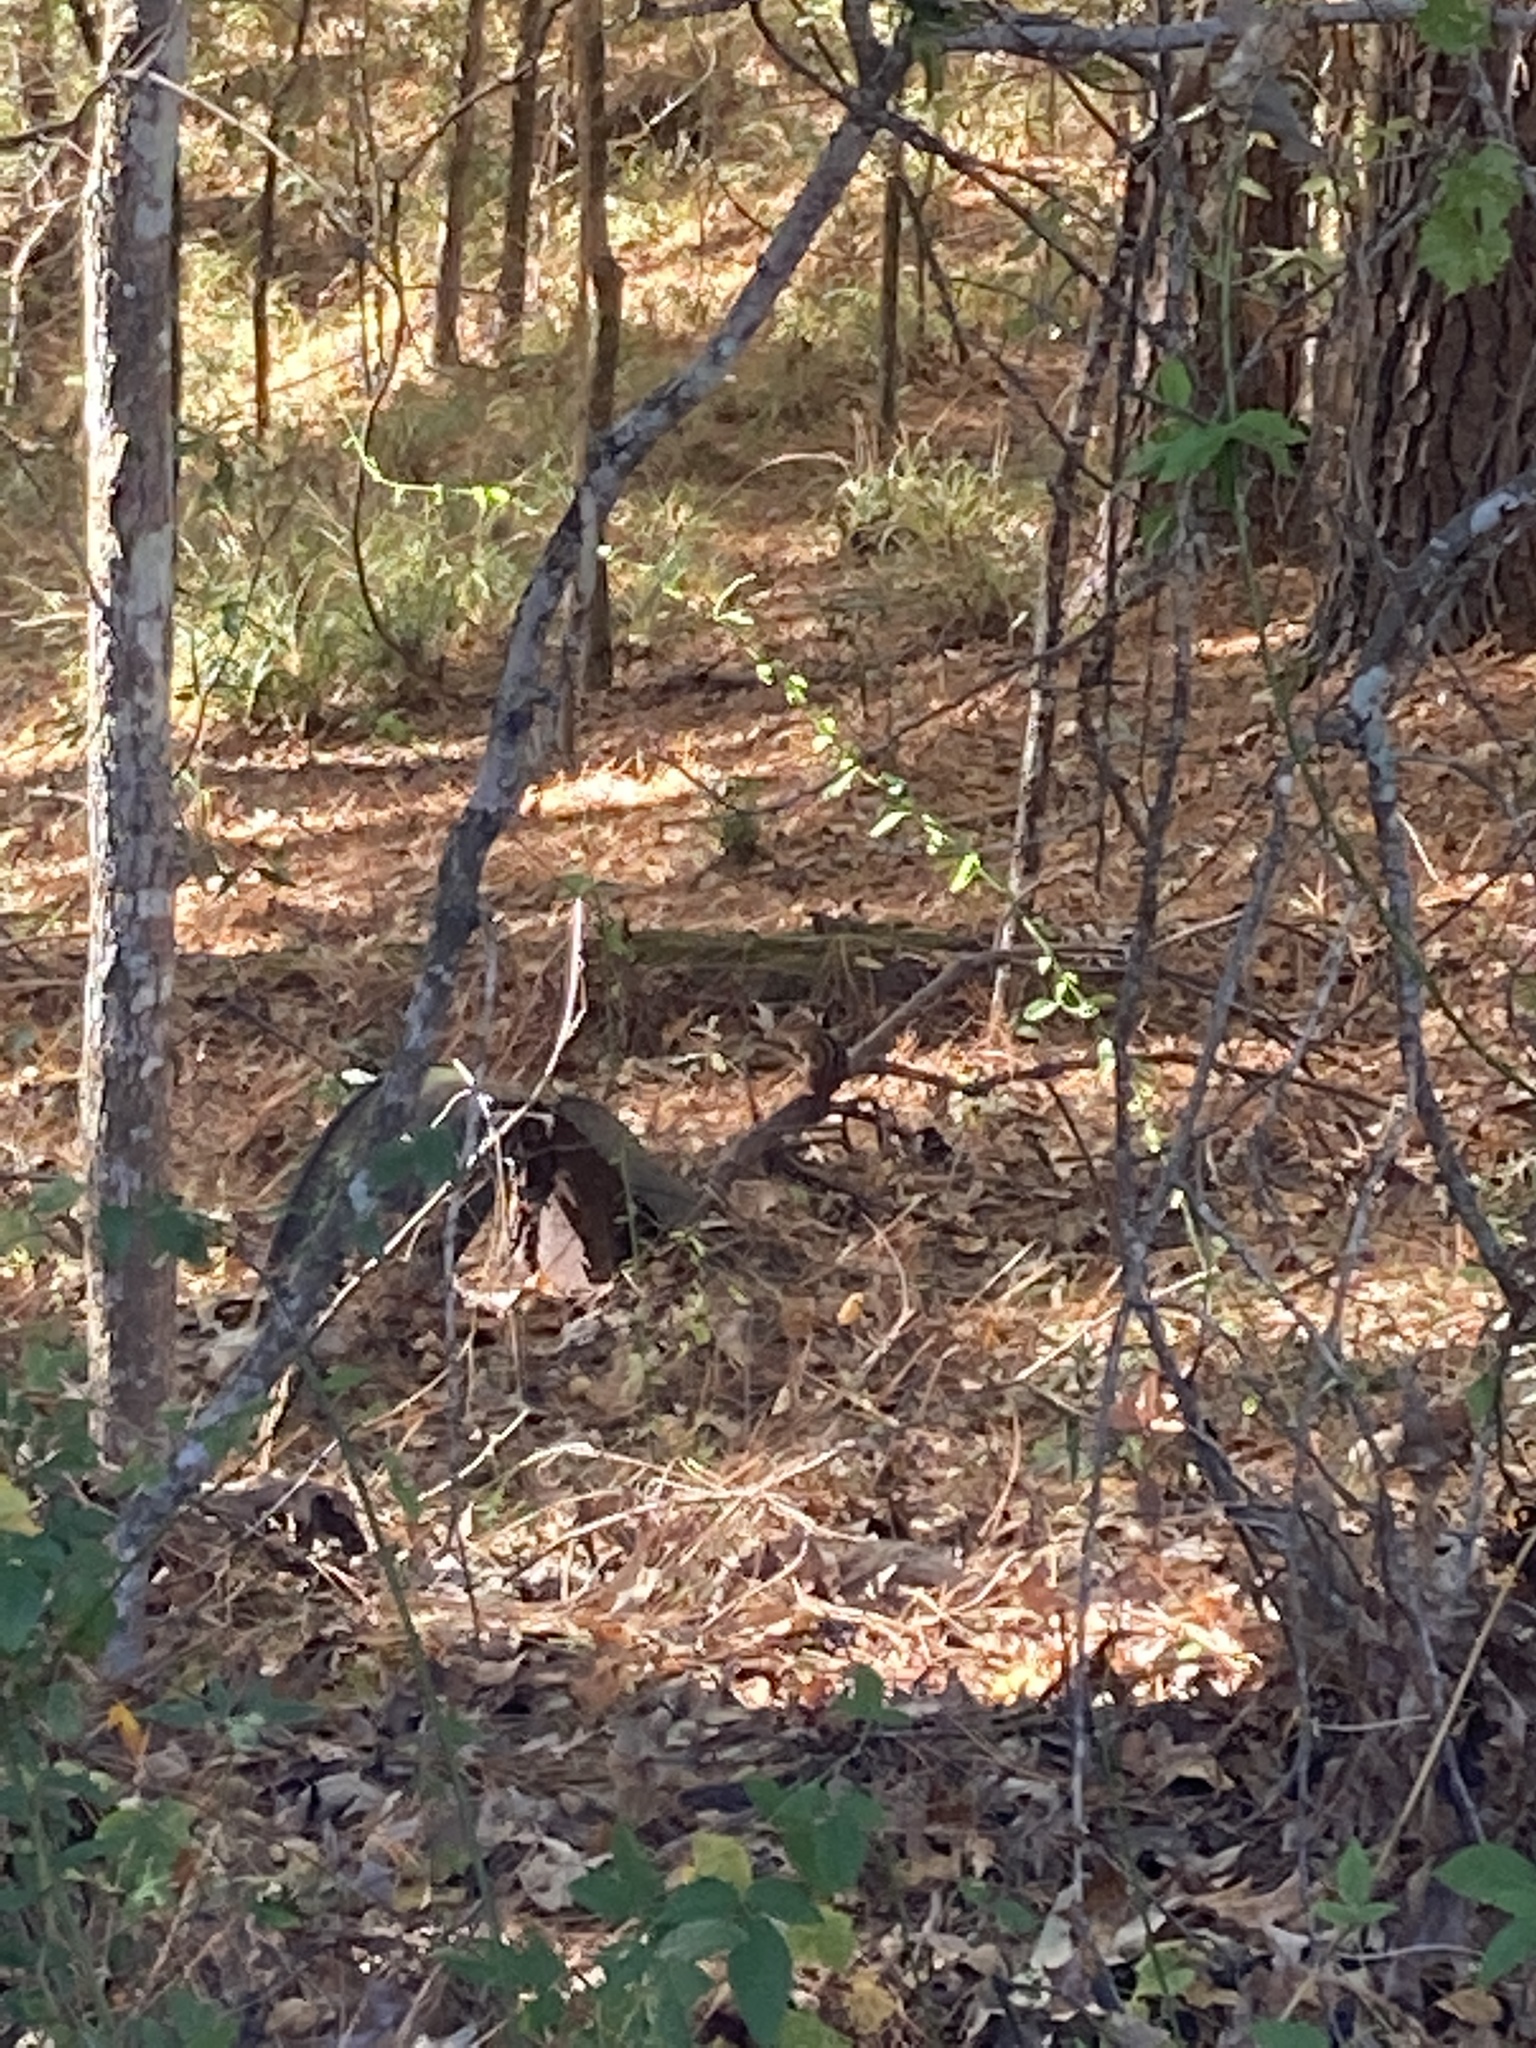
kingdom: Animalia
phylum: Chordata
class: Mammalia
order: Rodentia
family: Sciuridae
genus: Tamias
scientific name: Tamias striatus
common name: Eastern chipmunk
